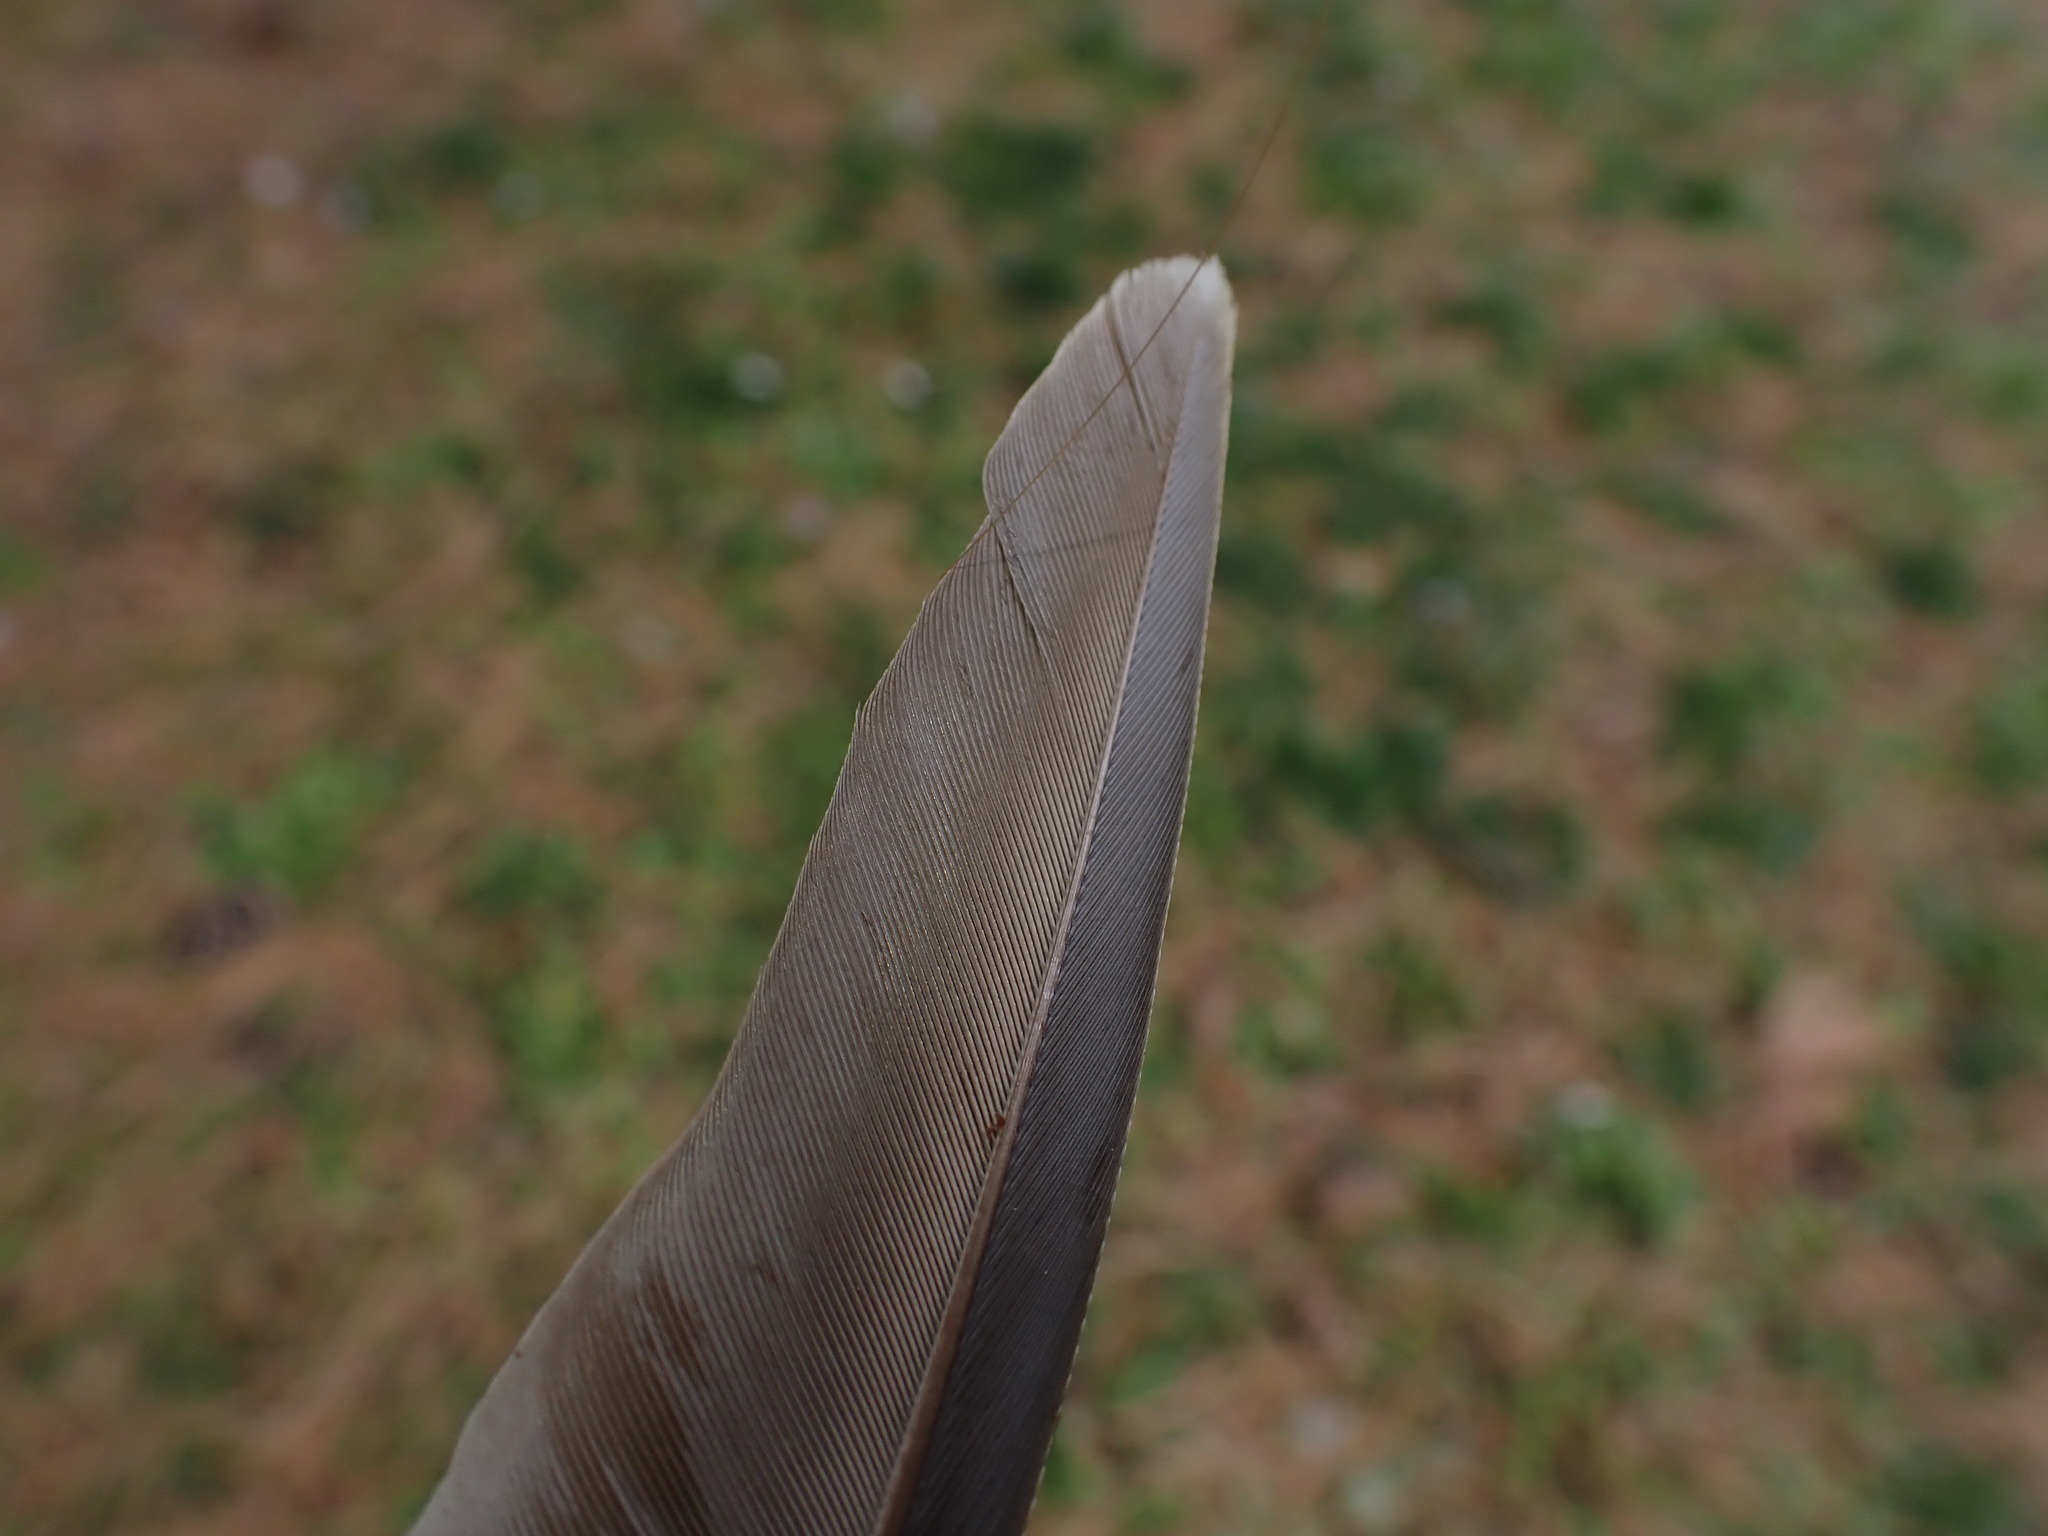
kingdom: Animalia
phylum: Chordata
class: Aves
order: Columbiformes
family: Columbidae
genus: Streptopelia
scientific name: Streptopelia decaocto
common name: Eurasian collared dove
